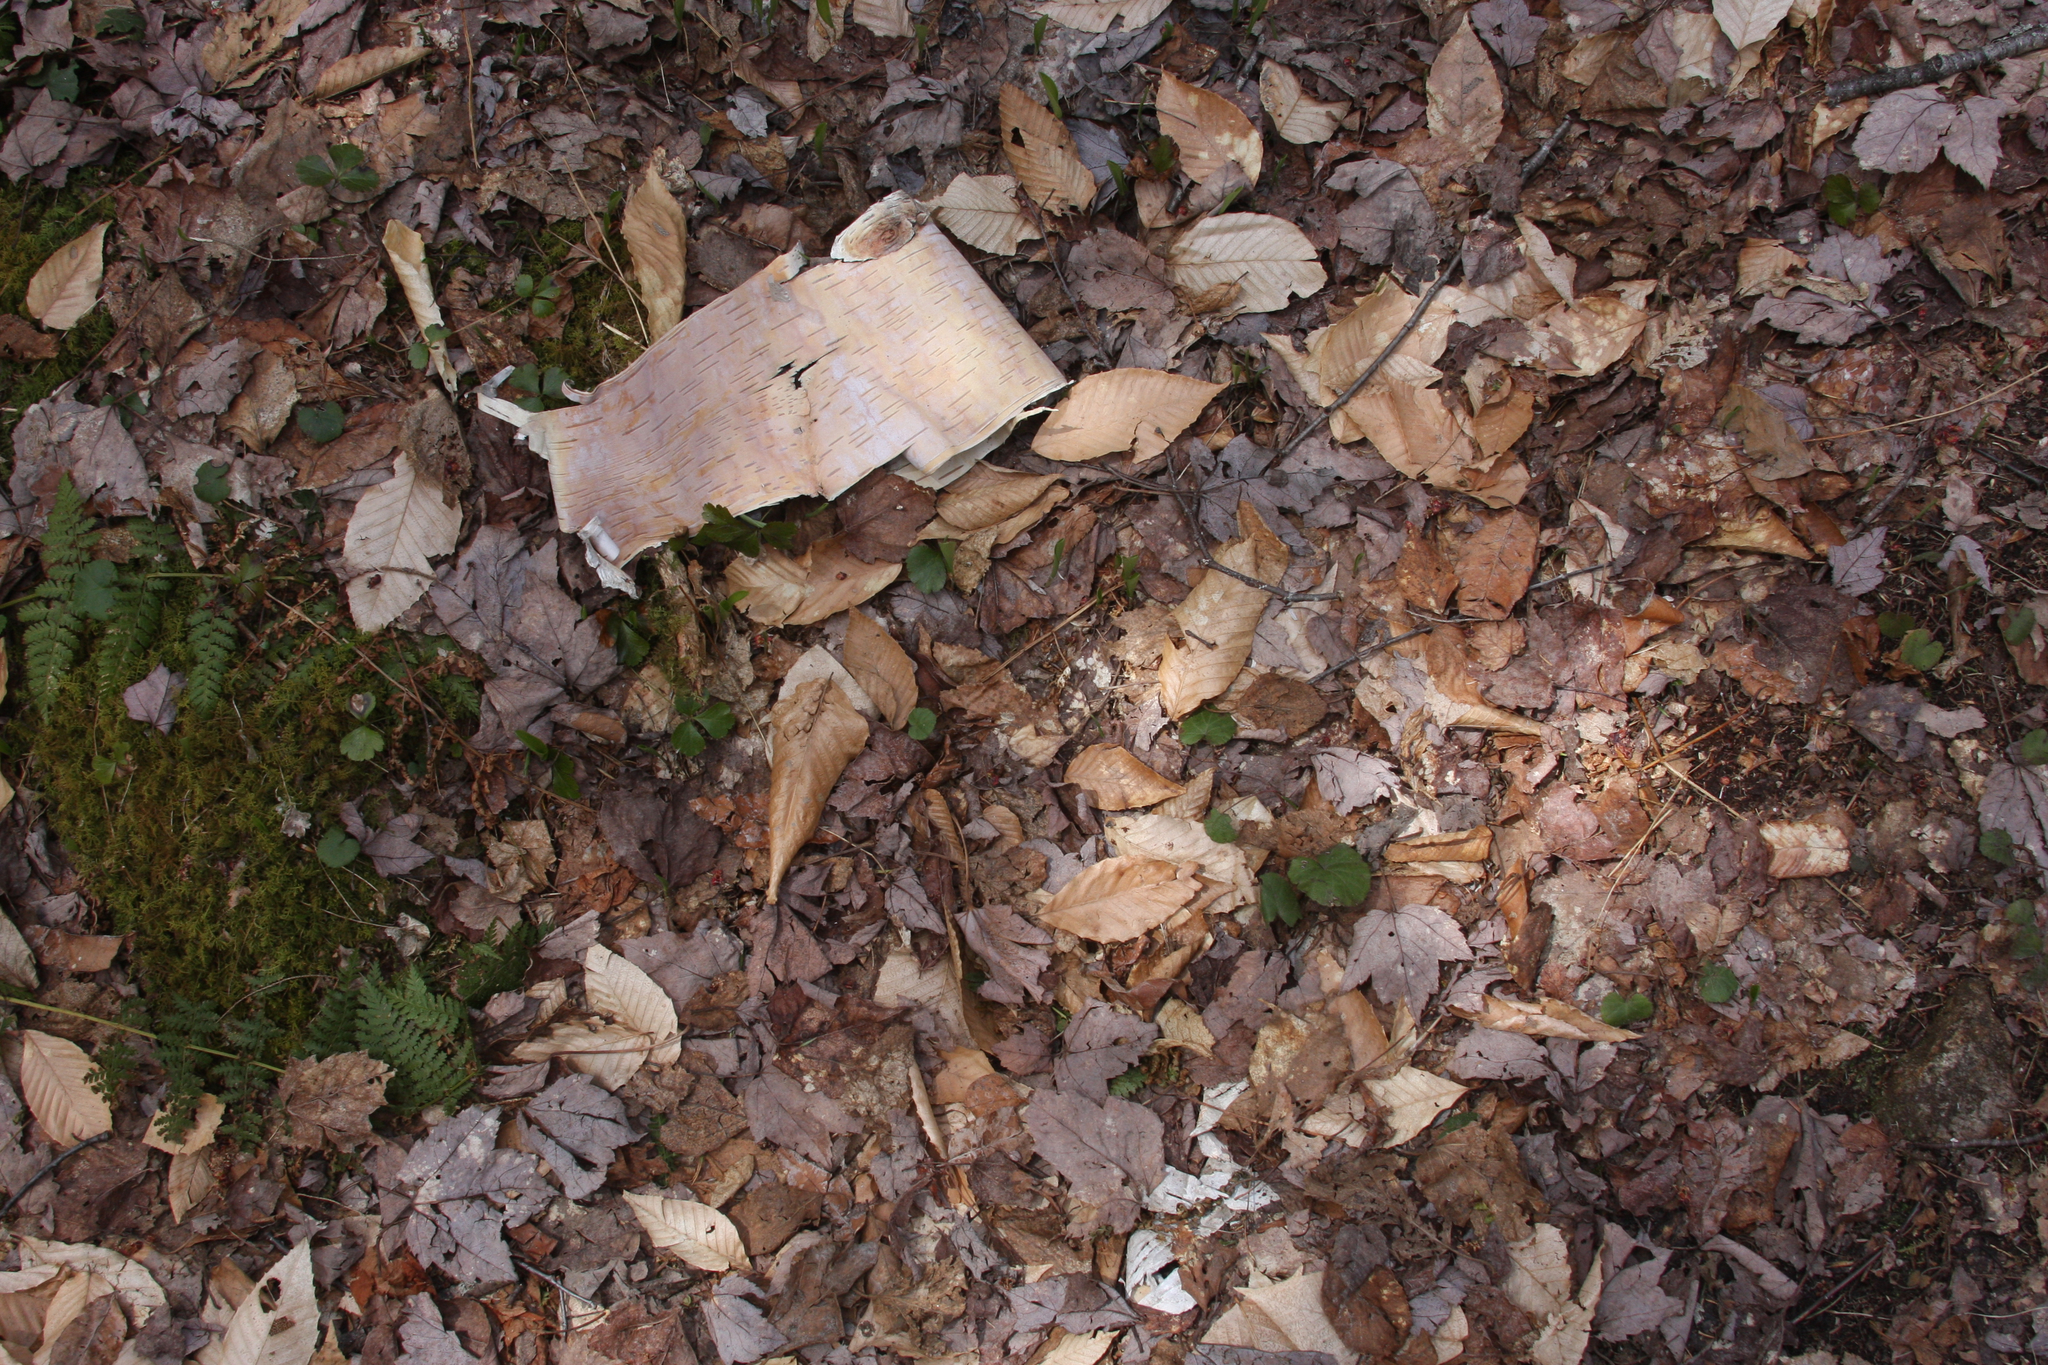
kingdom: Plantae
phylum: Tracheophyta
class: Magnoliopsida
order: Fagales
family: Betulaceae
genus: Betula
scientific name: Betula papyrifera
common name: Paper birch
